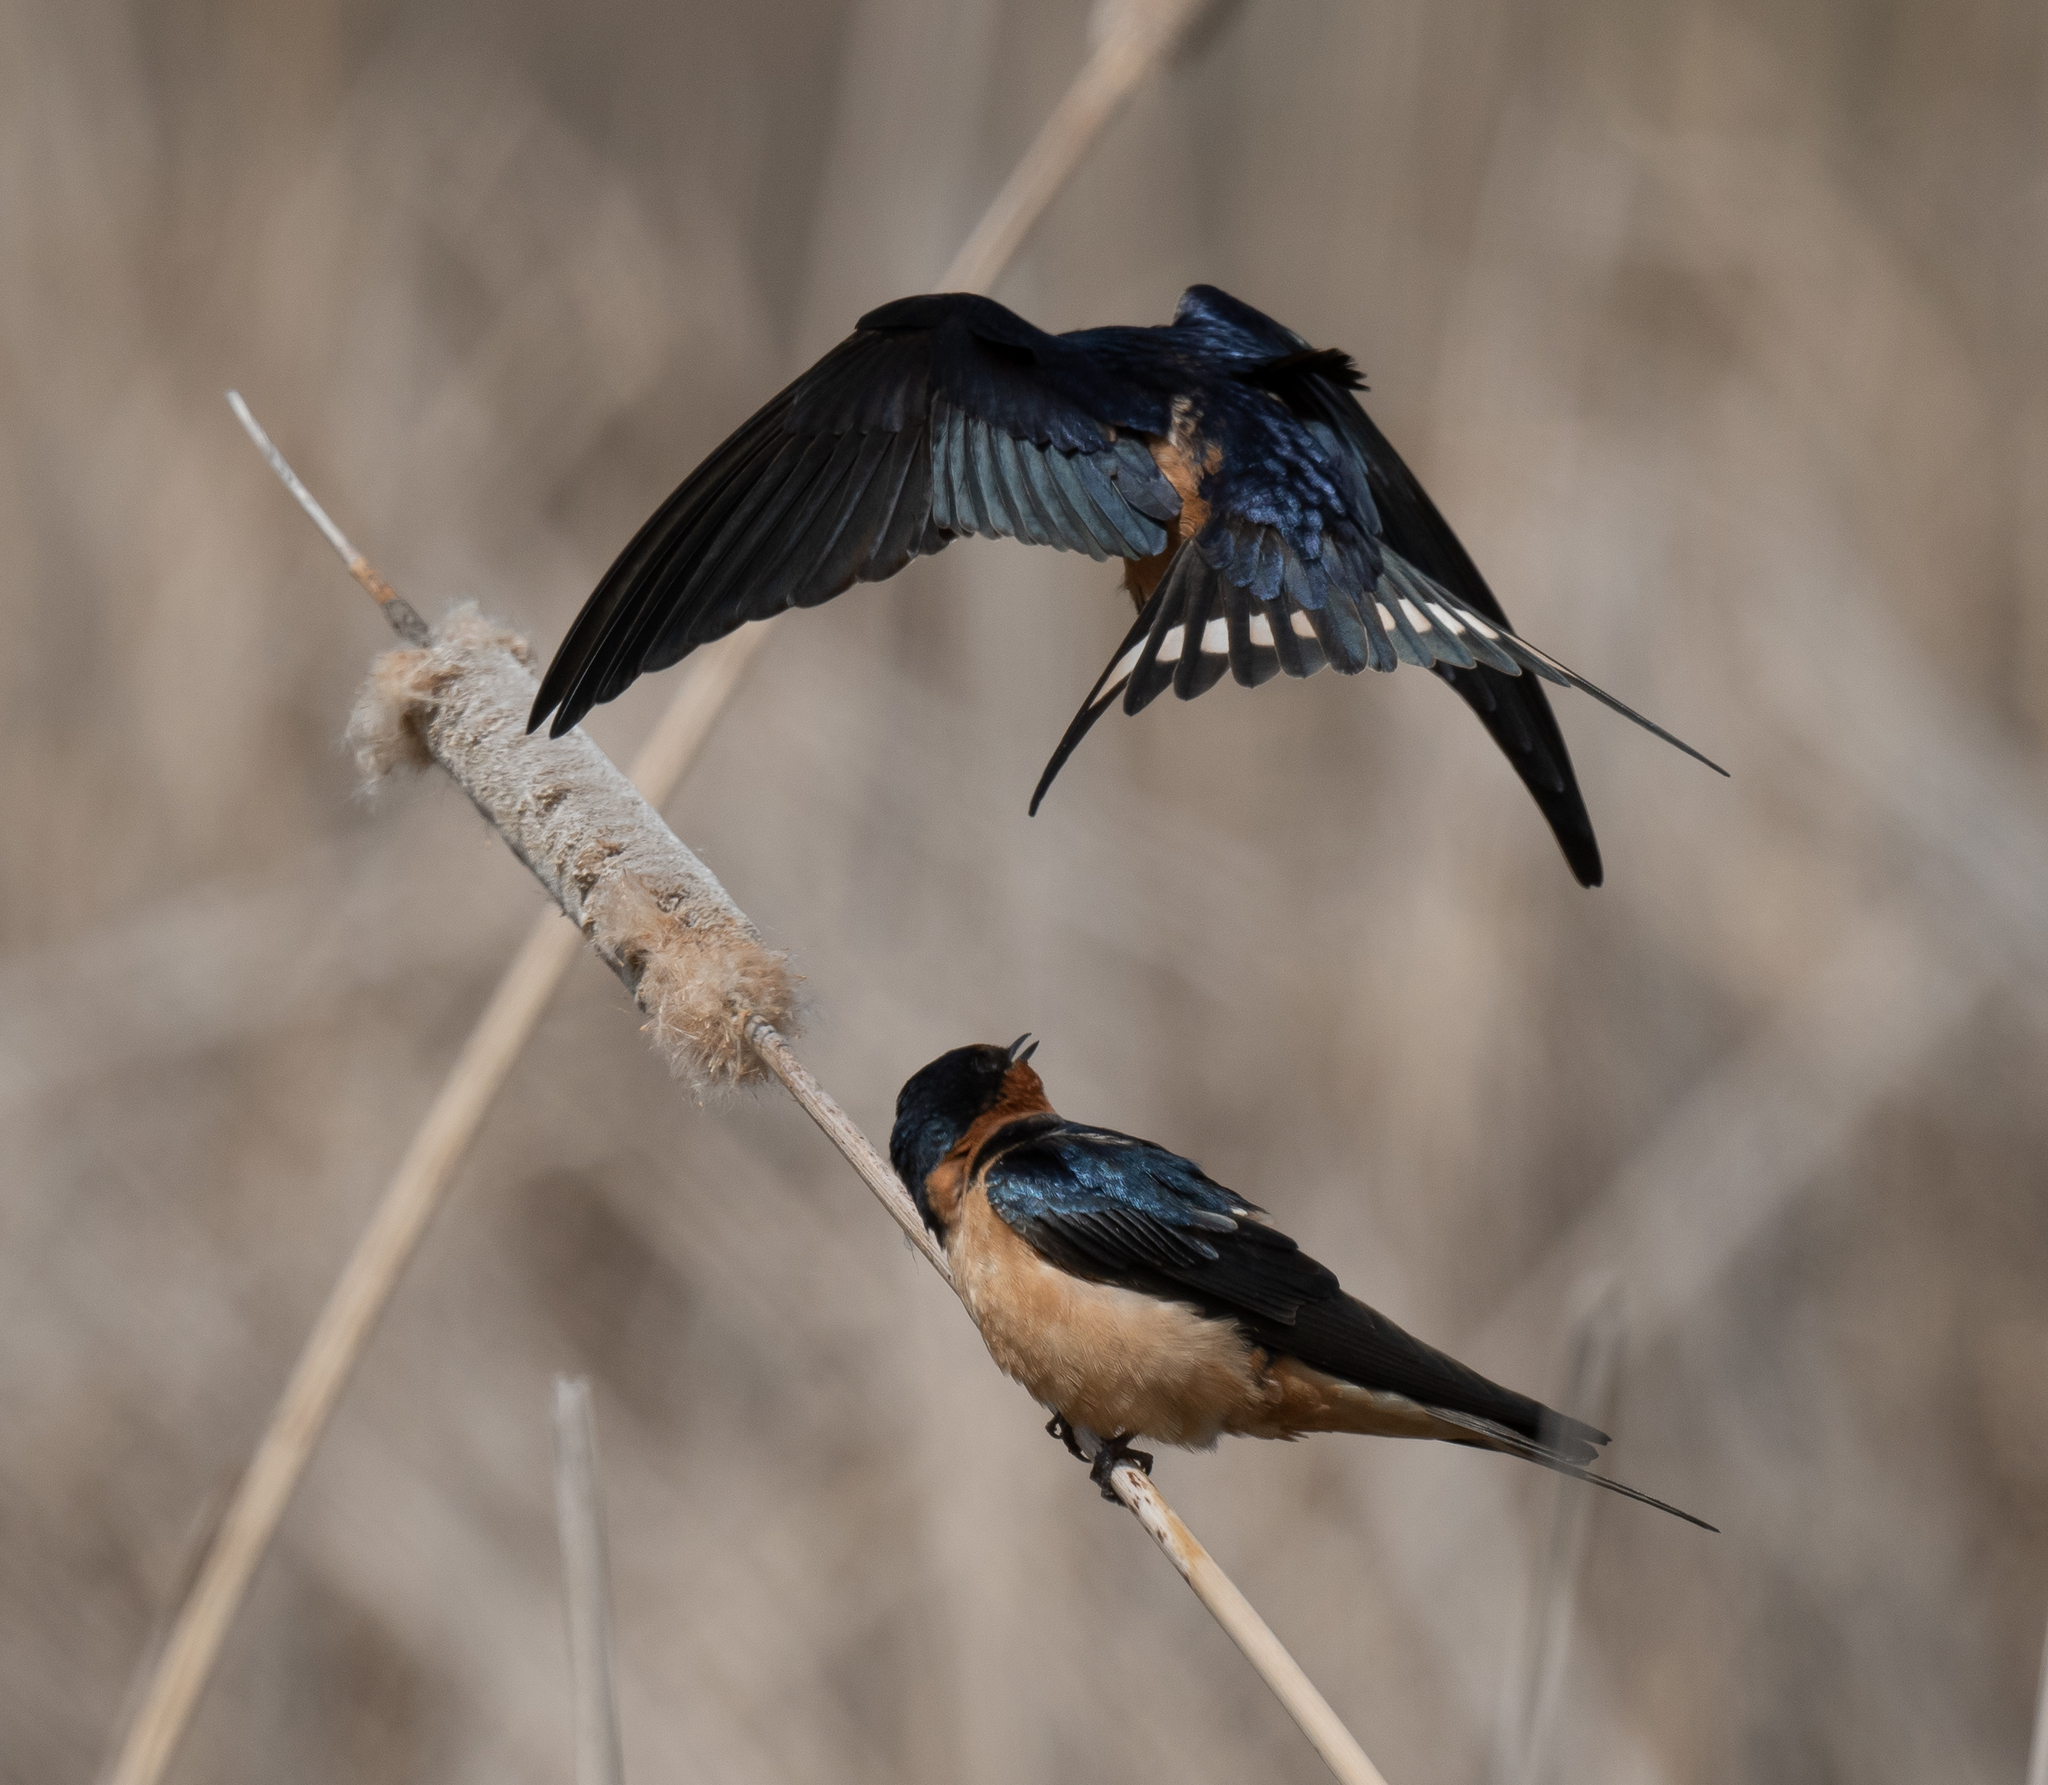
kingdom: Animalia
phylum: Chordata
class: Aves
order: Passeriformes
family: Hirundinidae
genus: Hirundo
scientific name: Hirundo rustica
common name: Barn swallow
